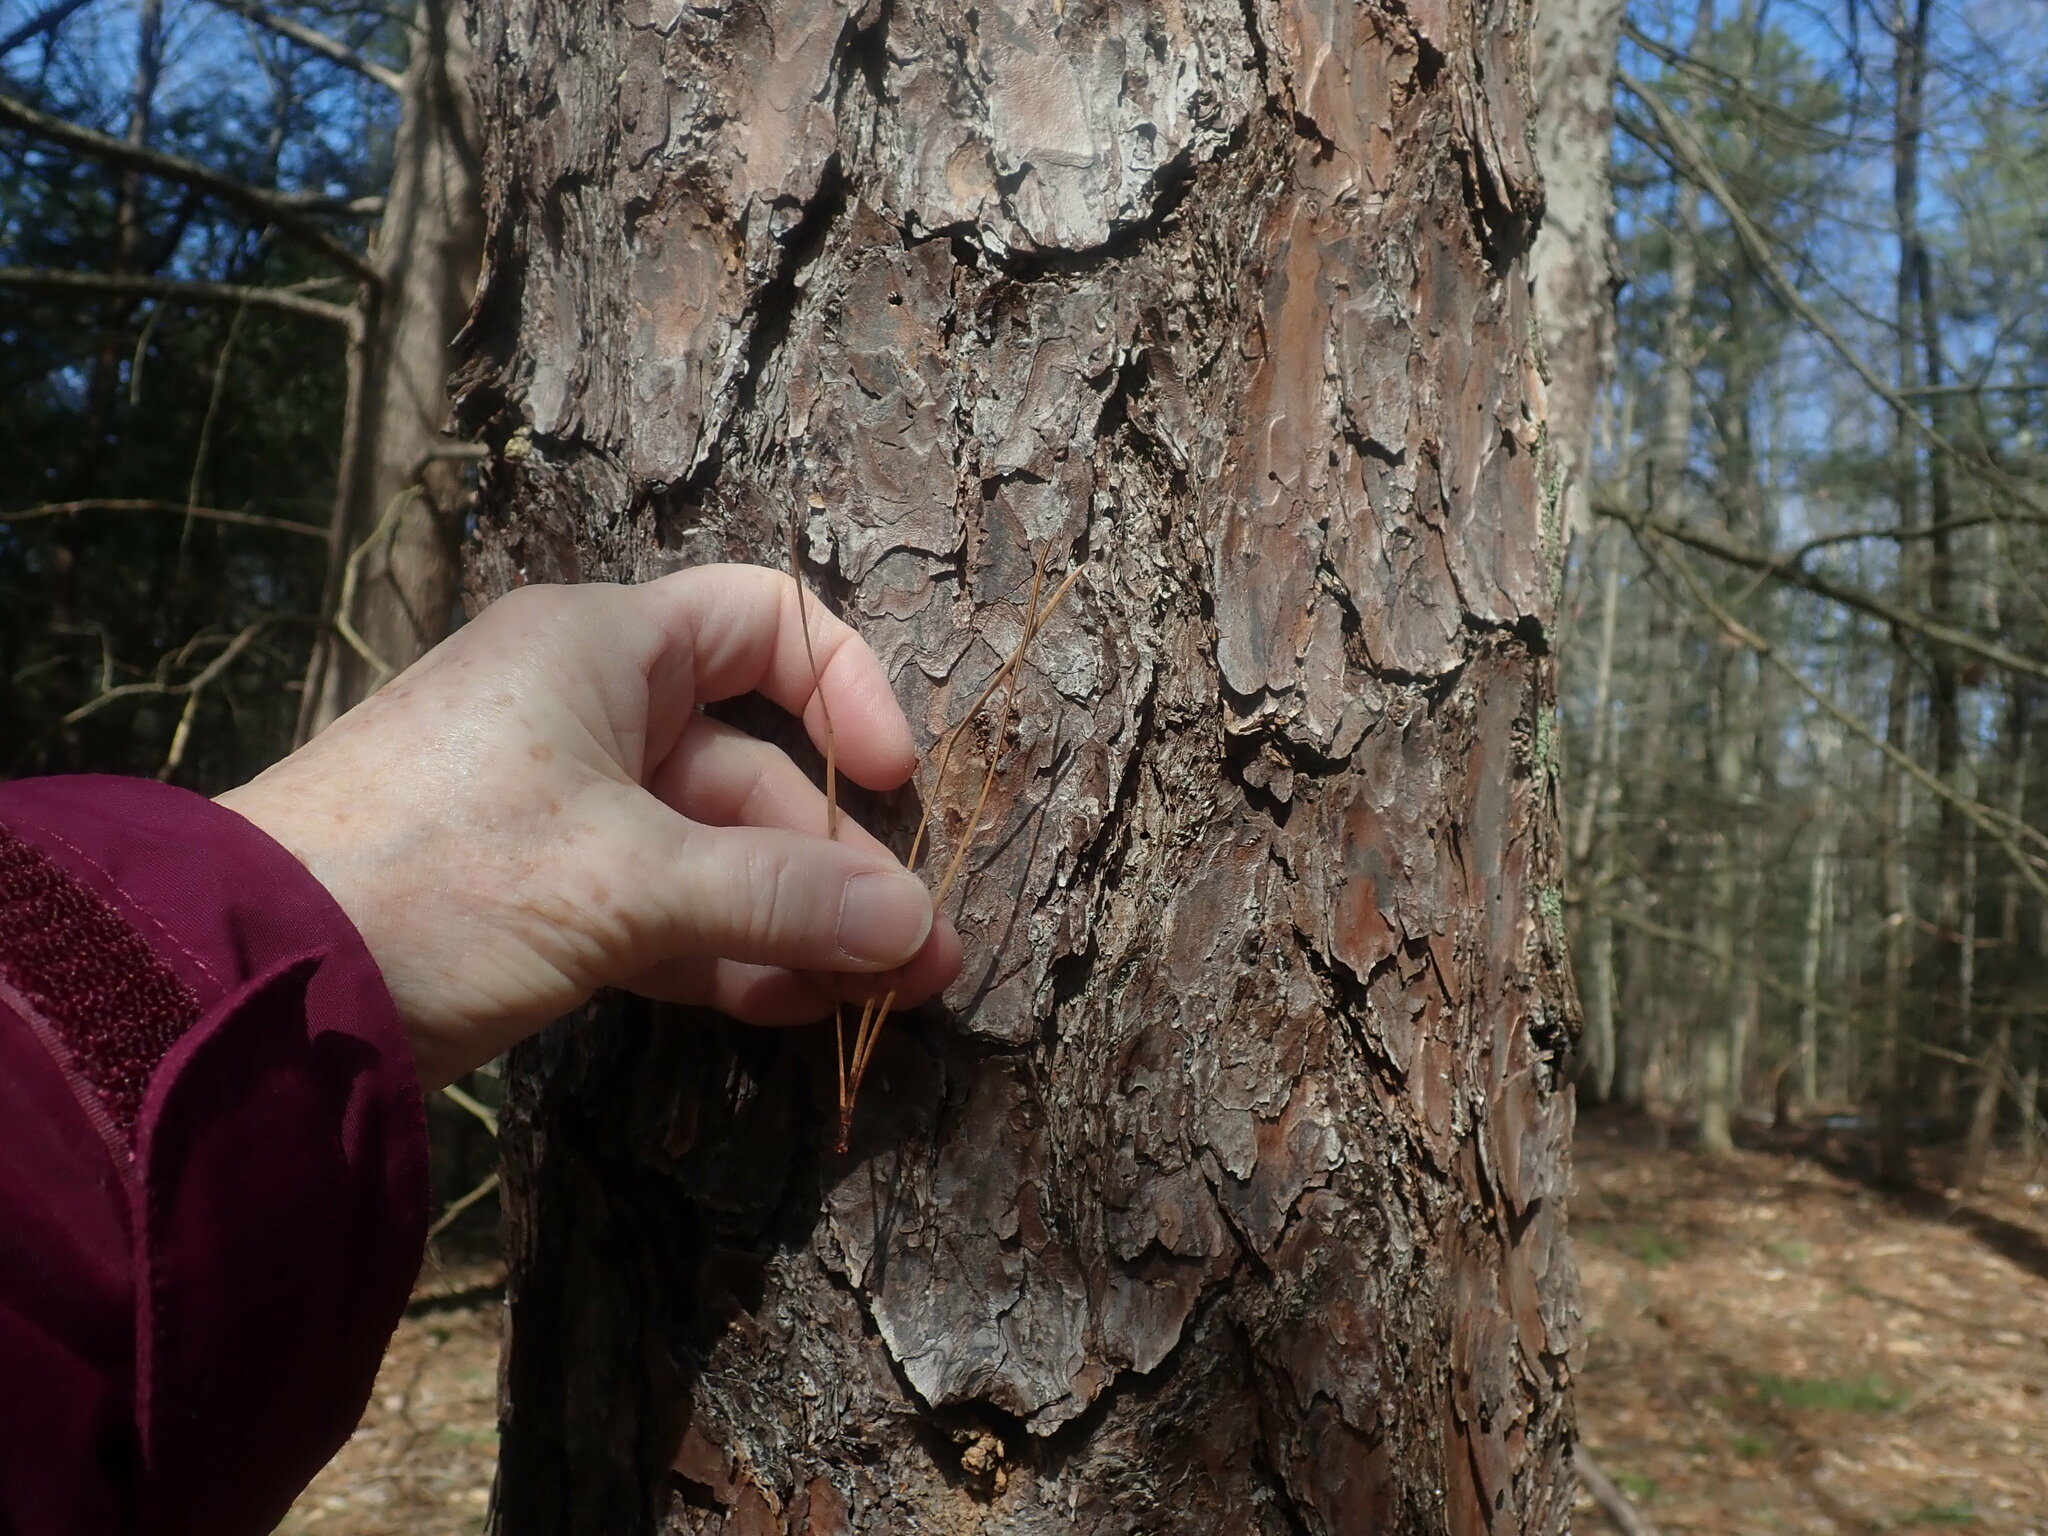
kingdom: Plantae
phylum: Tracheophyta
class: Pinopsida
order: Pinales
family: Pinaceae
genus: Pinus
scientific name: Pinus rigida
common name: Pitch pine
